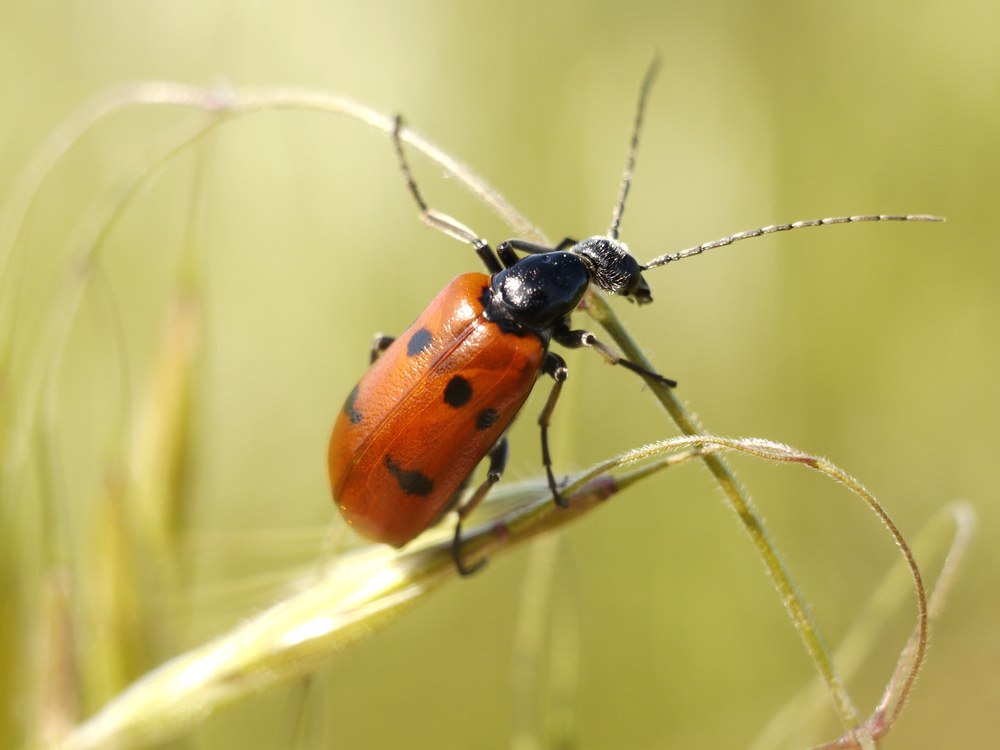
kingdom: Animalia
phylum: Arthropoda
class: Insecta
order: Coleoptera
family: Meloidae
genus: Stenodera
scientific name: Stenodera caucasica
